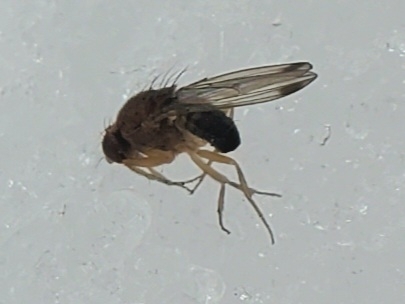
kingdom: Animalia
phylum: Arthropoda
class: Insecta
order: Diptera
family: Drosophilidae
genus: Drosophila
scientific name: Drosophila suzukii
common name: Spotted-wing drosophila
